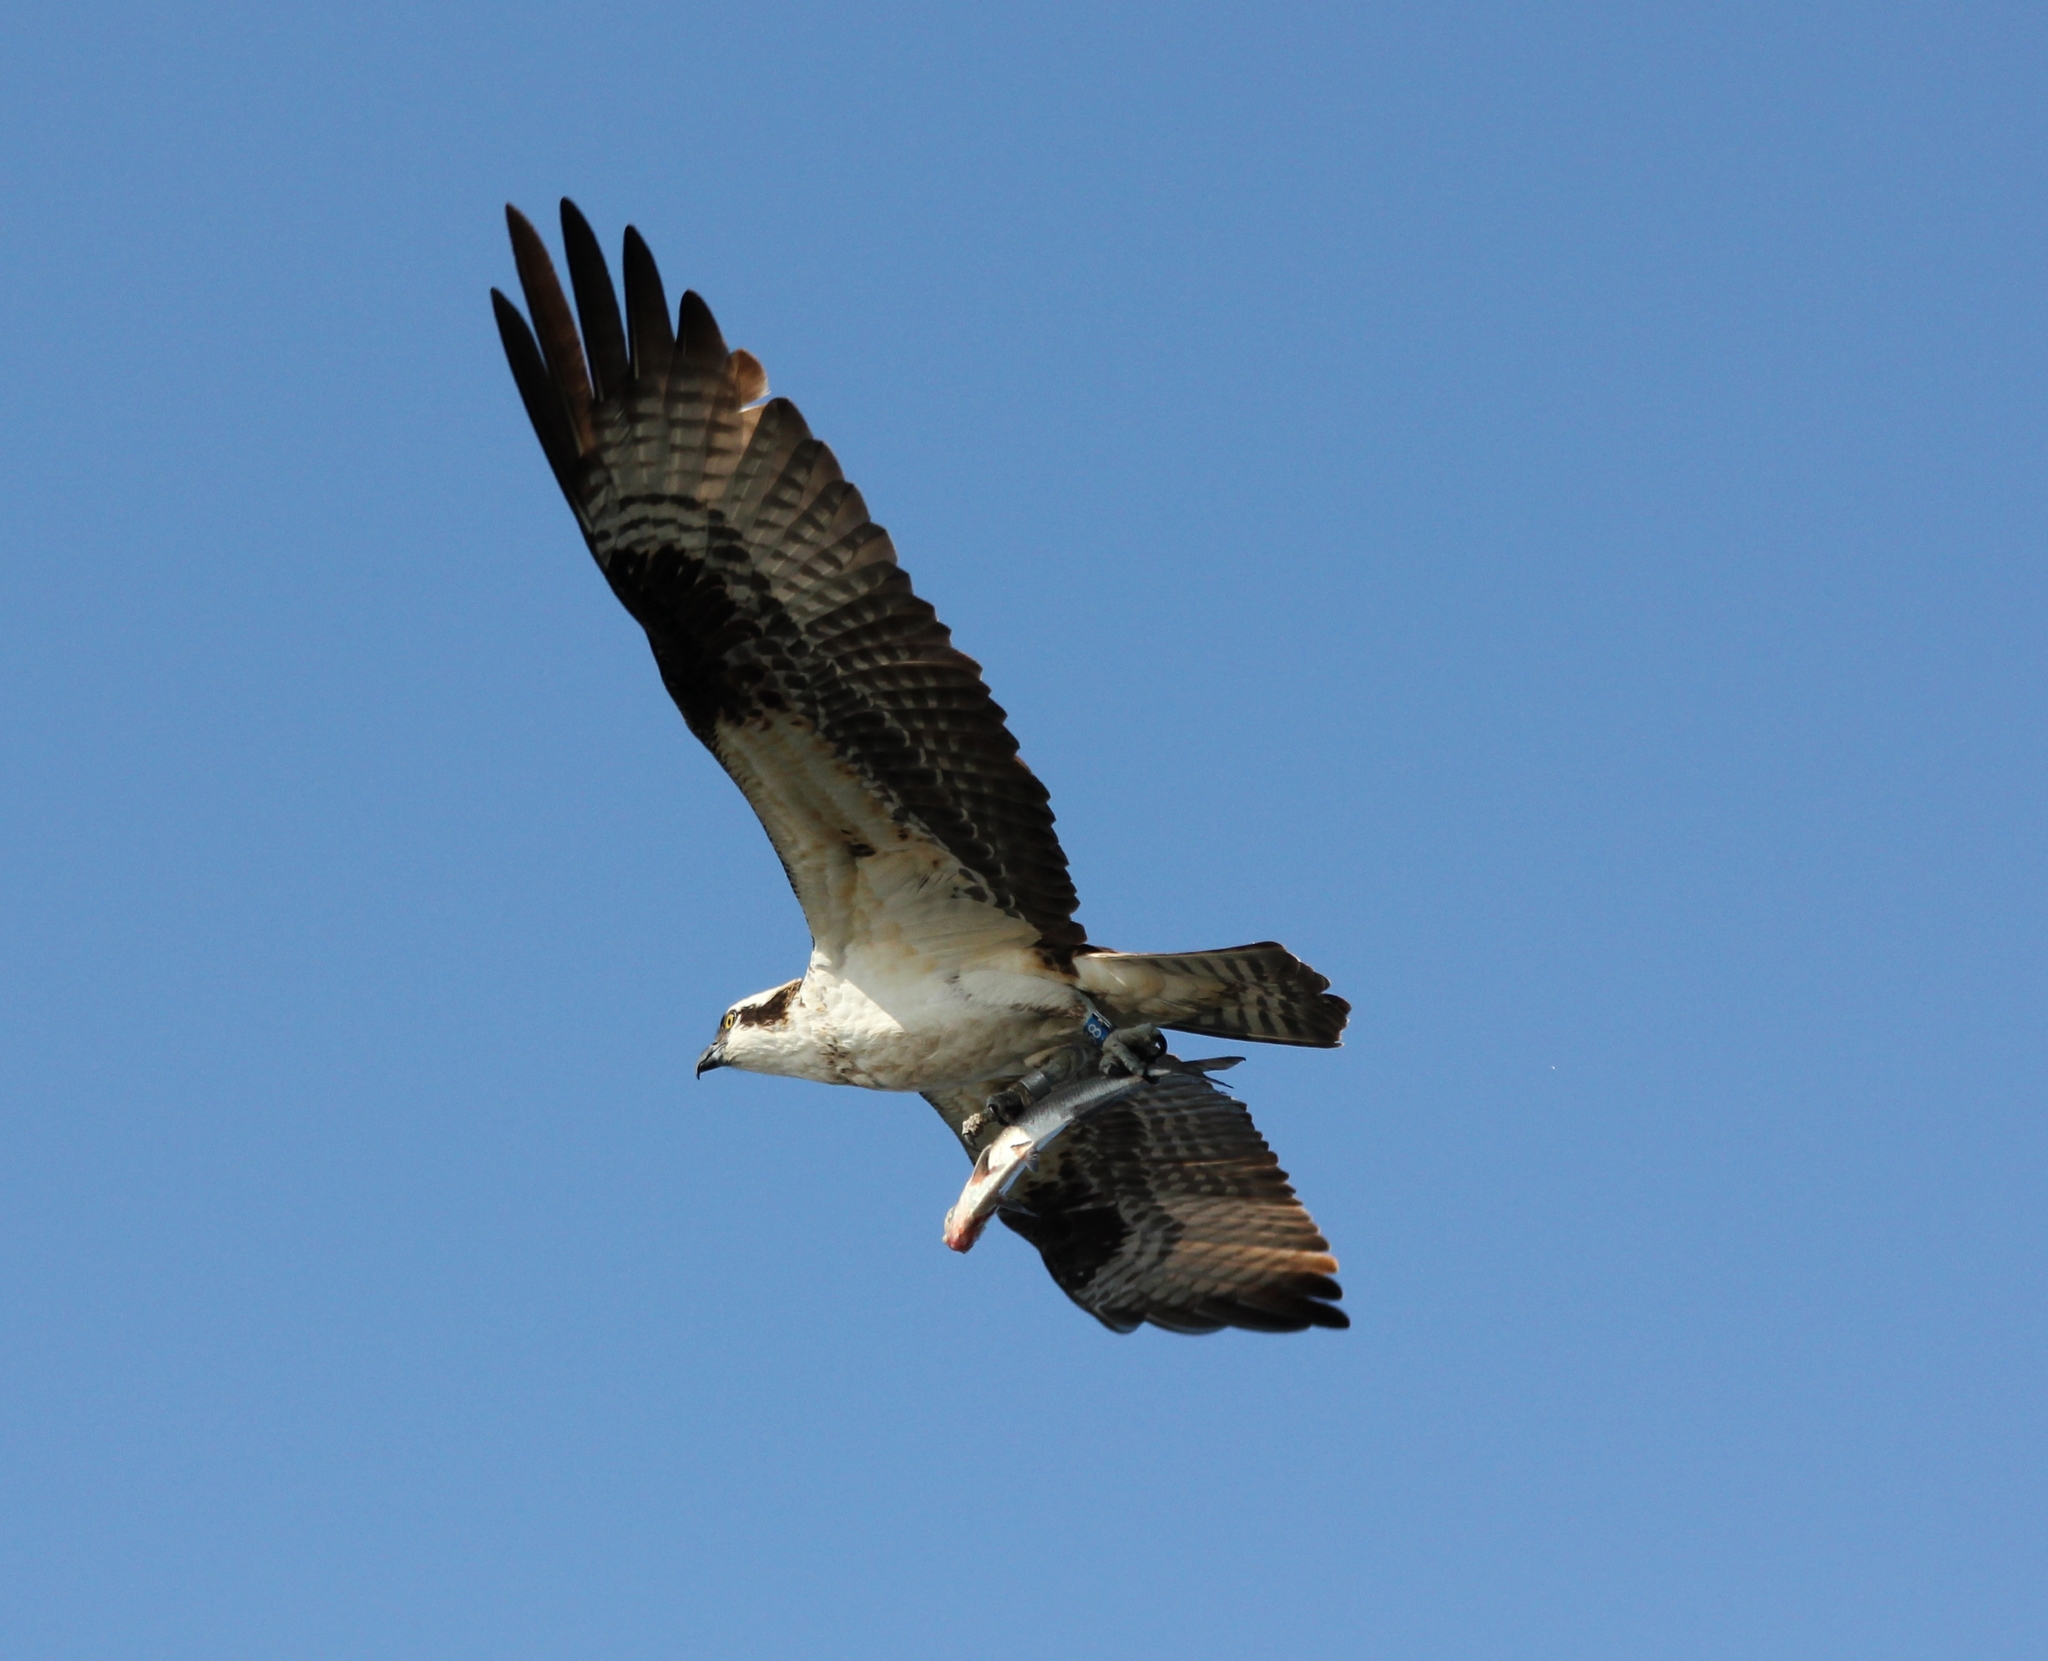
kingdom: Animalia
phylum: Chordata
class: Aves
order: Accipitriformes
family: Pandionidae
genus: Pandion
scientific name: Pandion haliaetus
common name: Osprey
